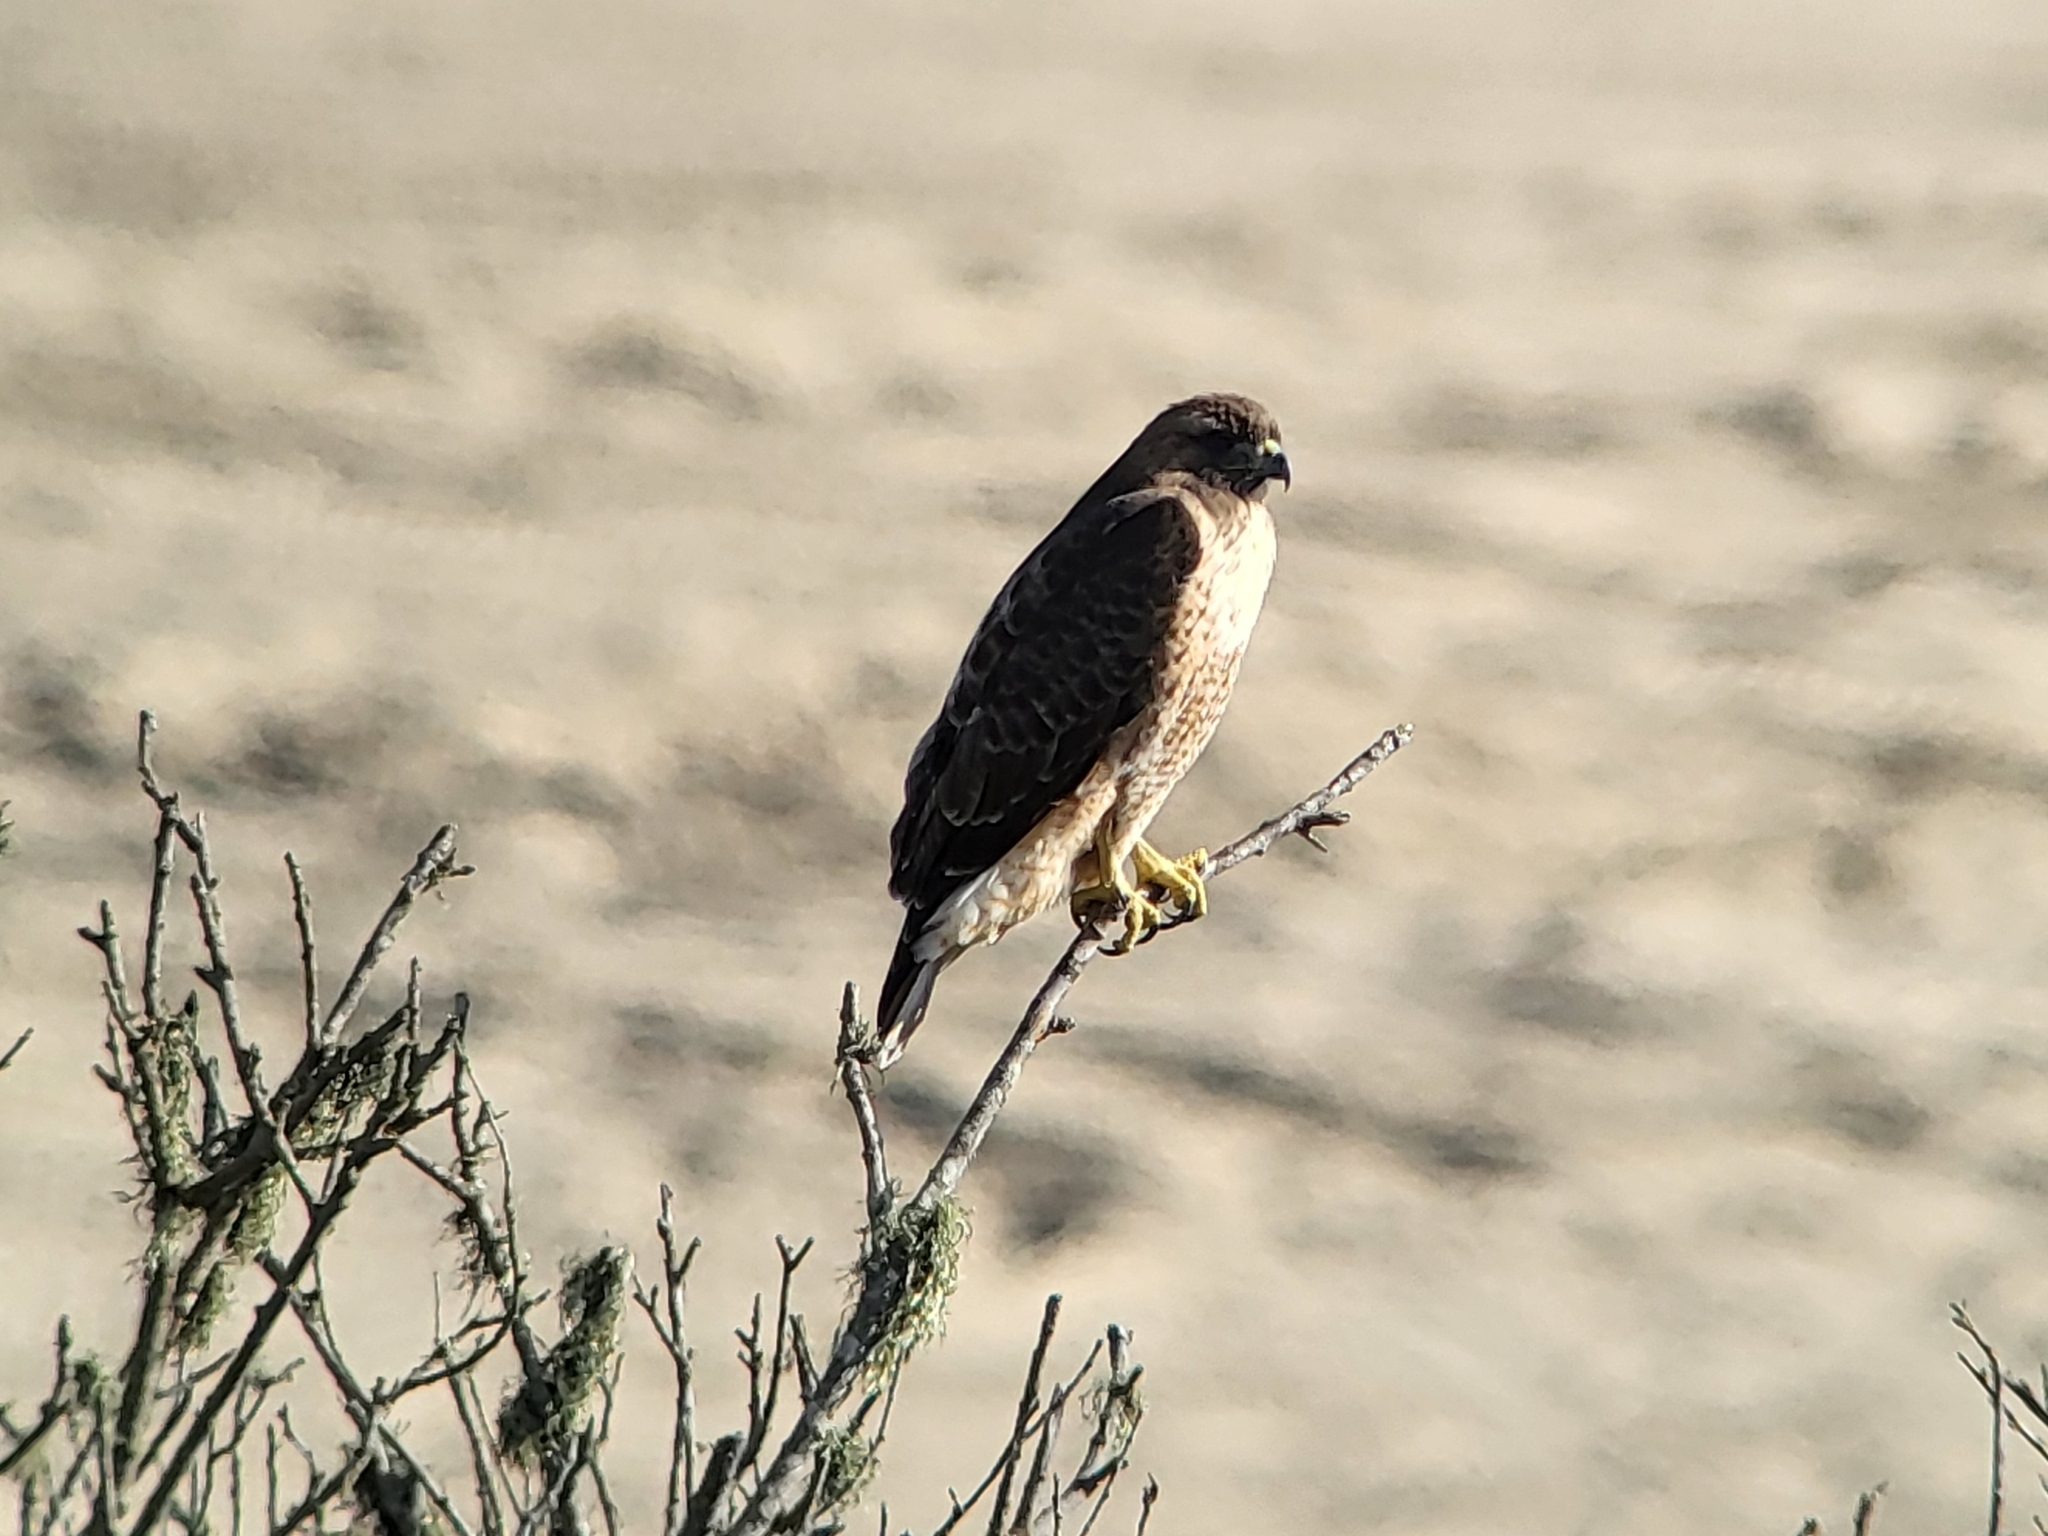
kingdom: Animalia
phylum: Chordata
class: Aves
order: Accipitriformes
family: Accipitridae
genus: Buteo
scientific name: Buteo jamaicensis
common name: Red-tailed hawk
